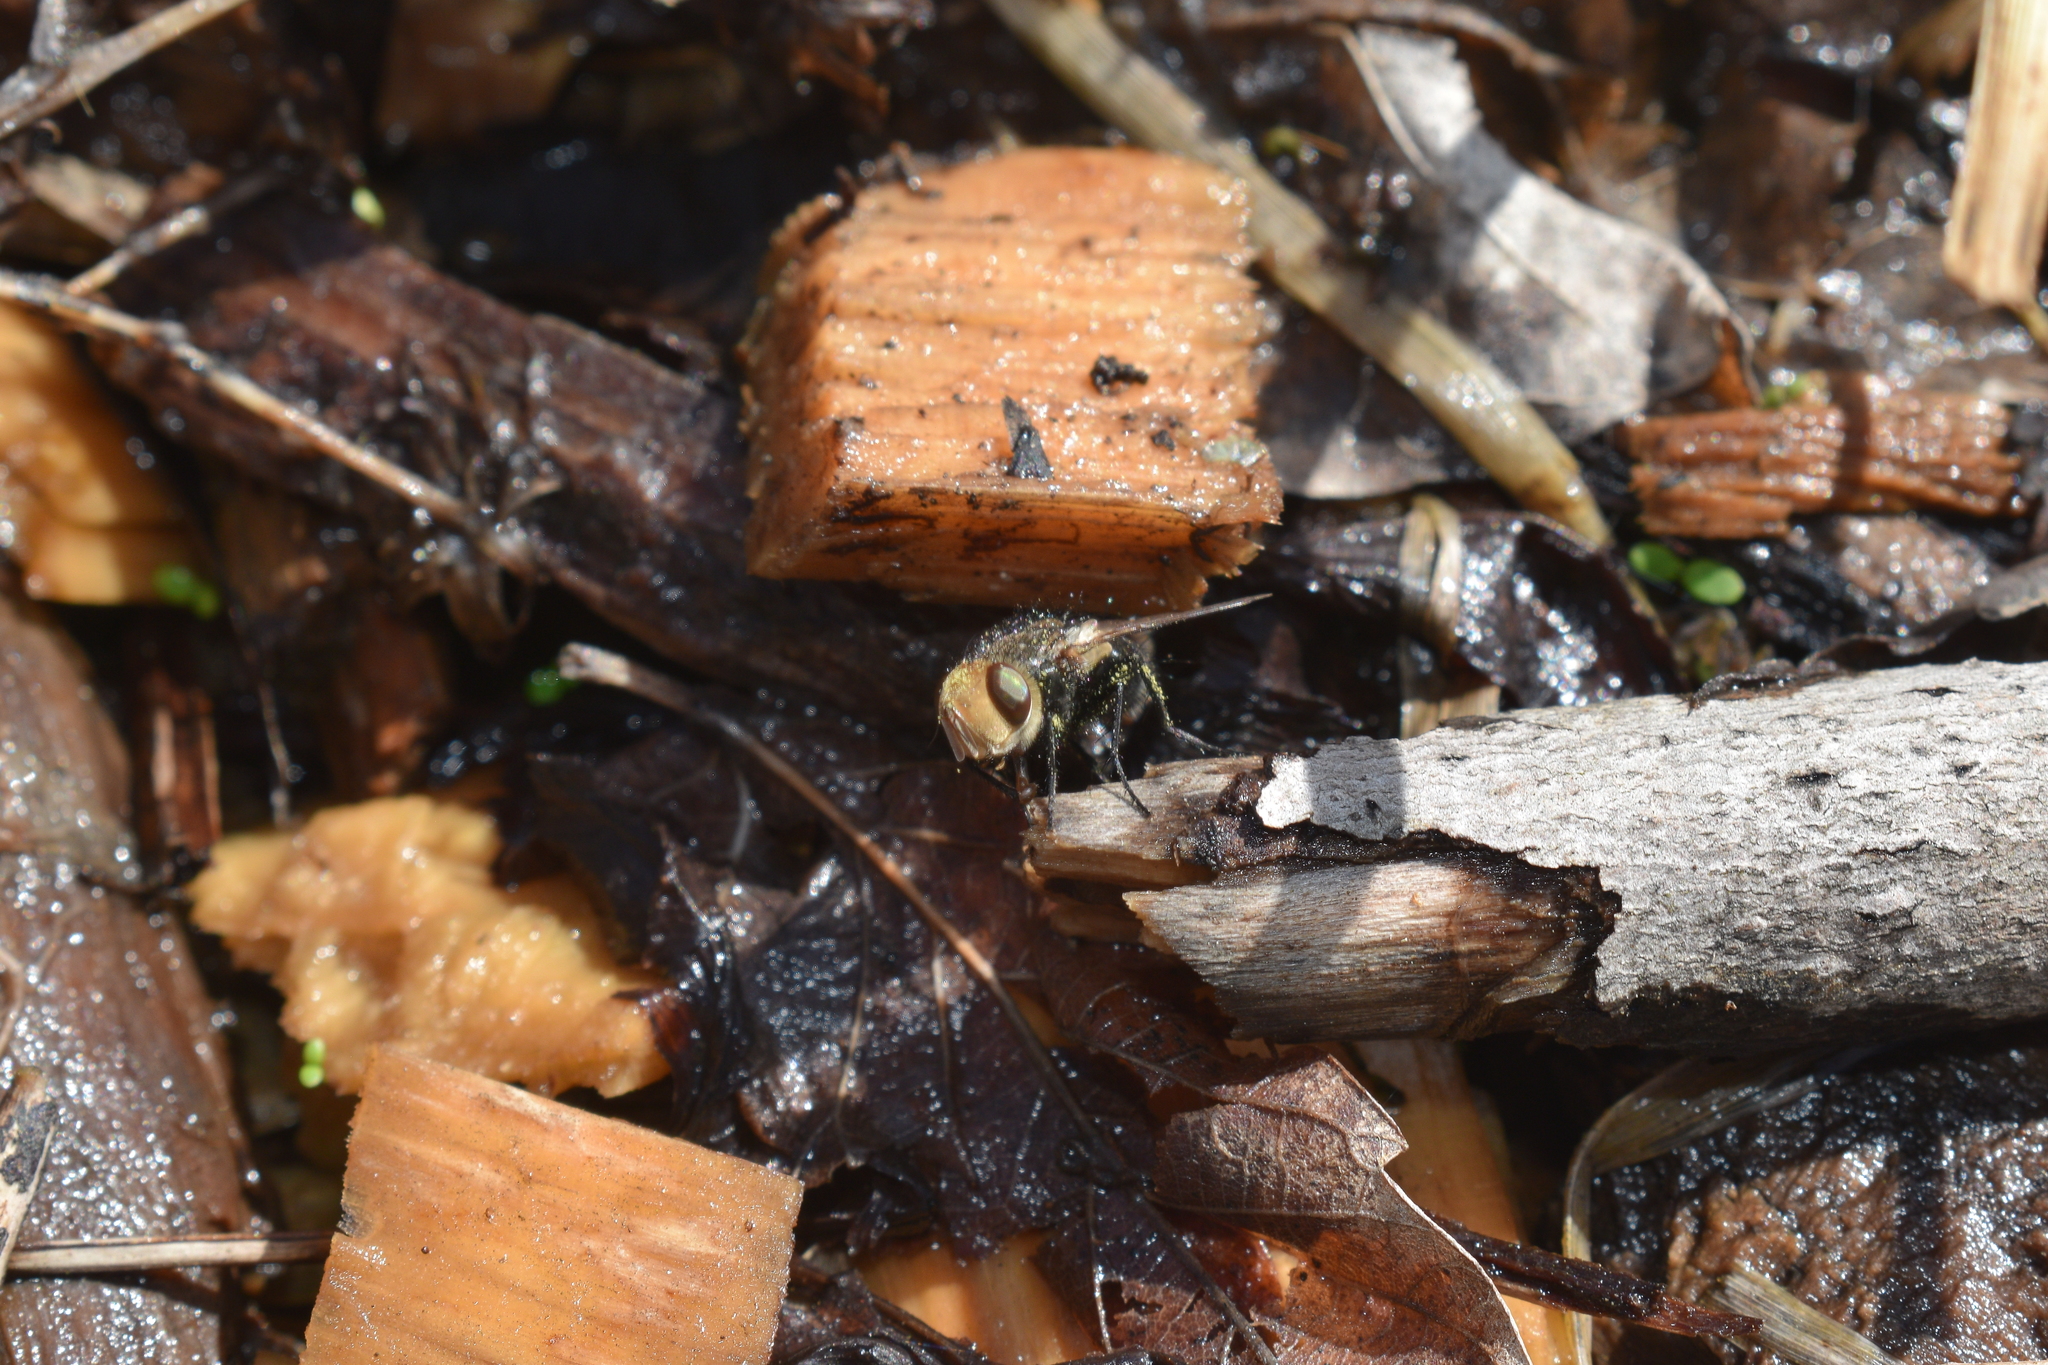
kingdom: Animalia
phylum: Arthropoda
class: Insecta
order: Diptera
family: Tachinidae
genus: Gonia
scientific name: Gonia sagax
